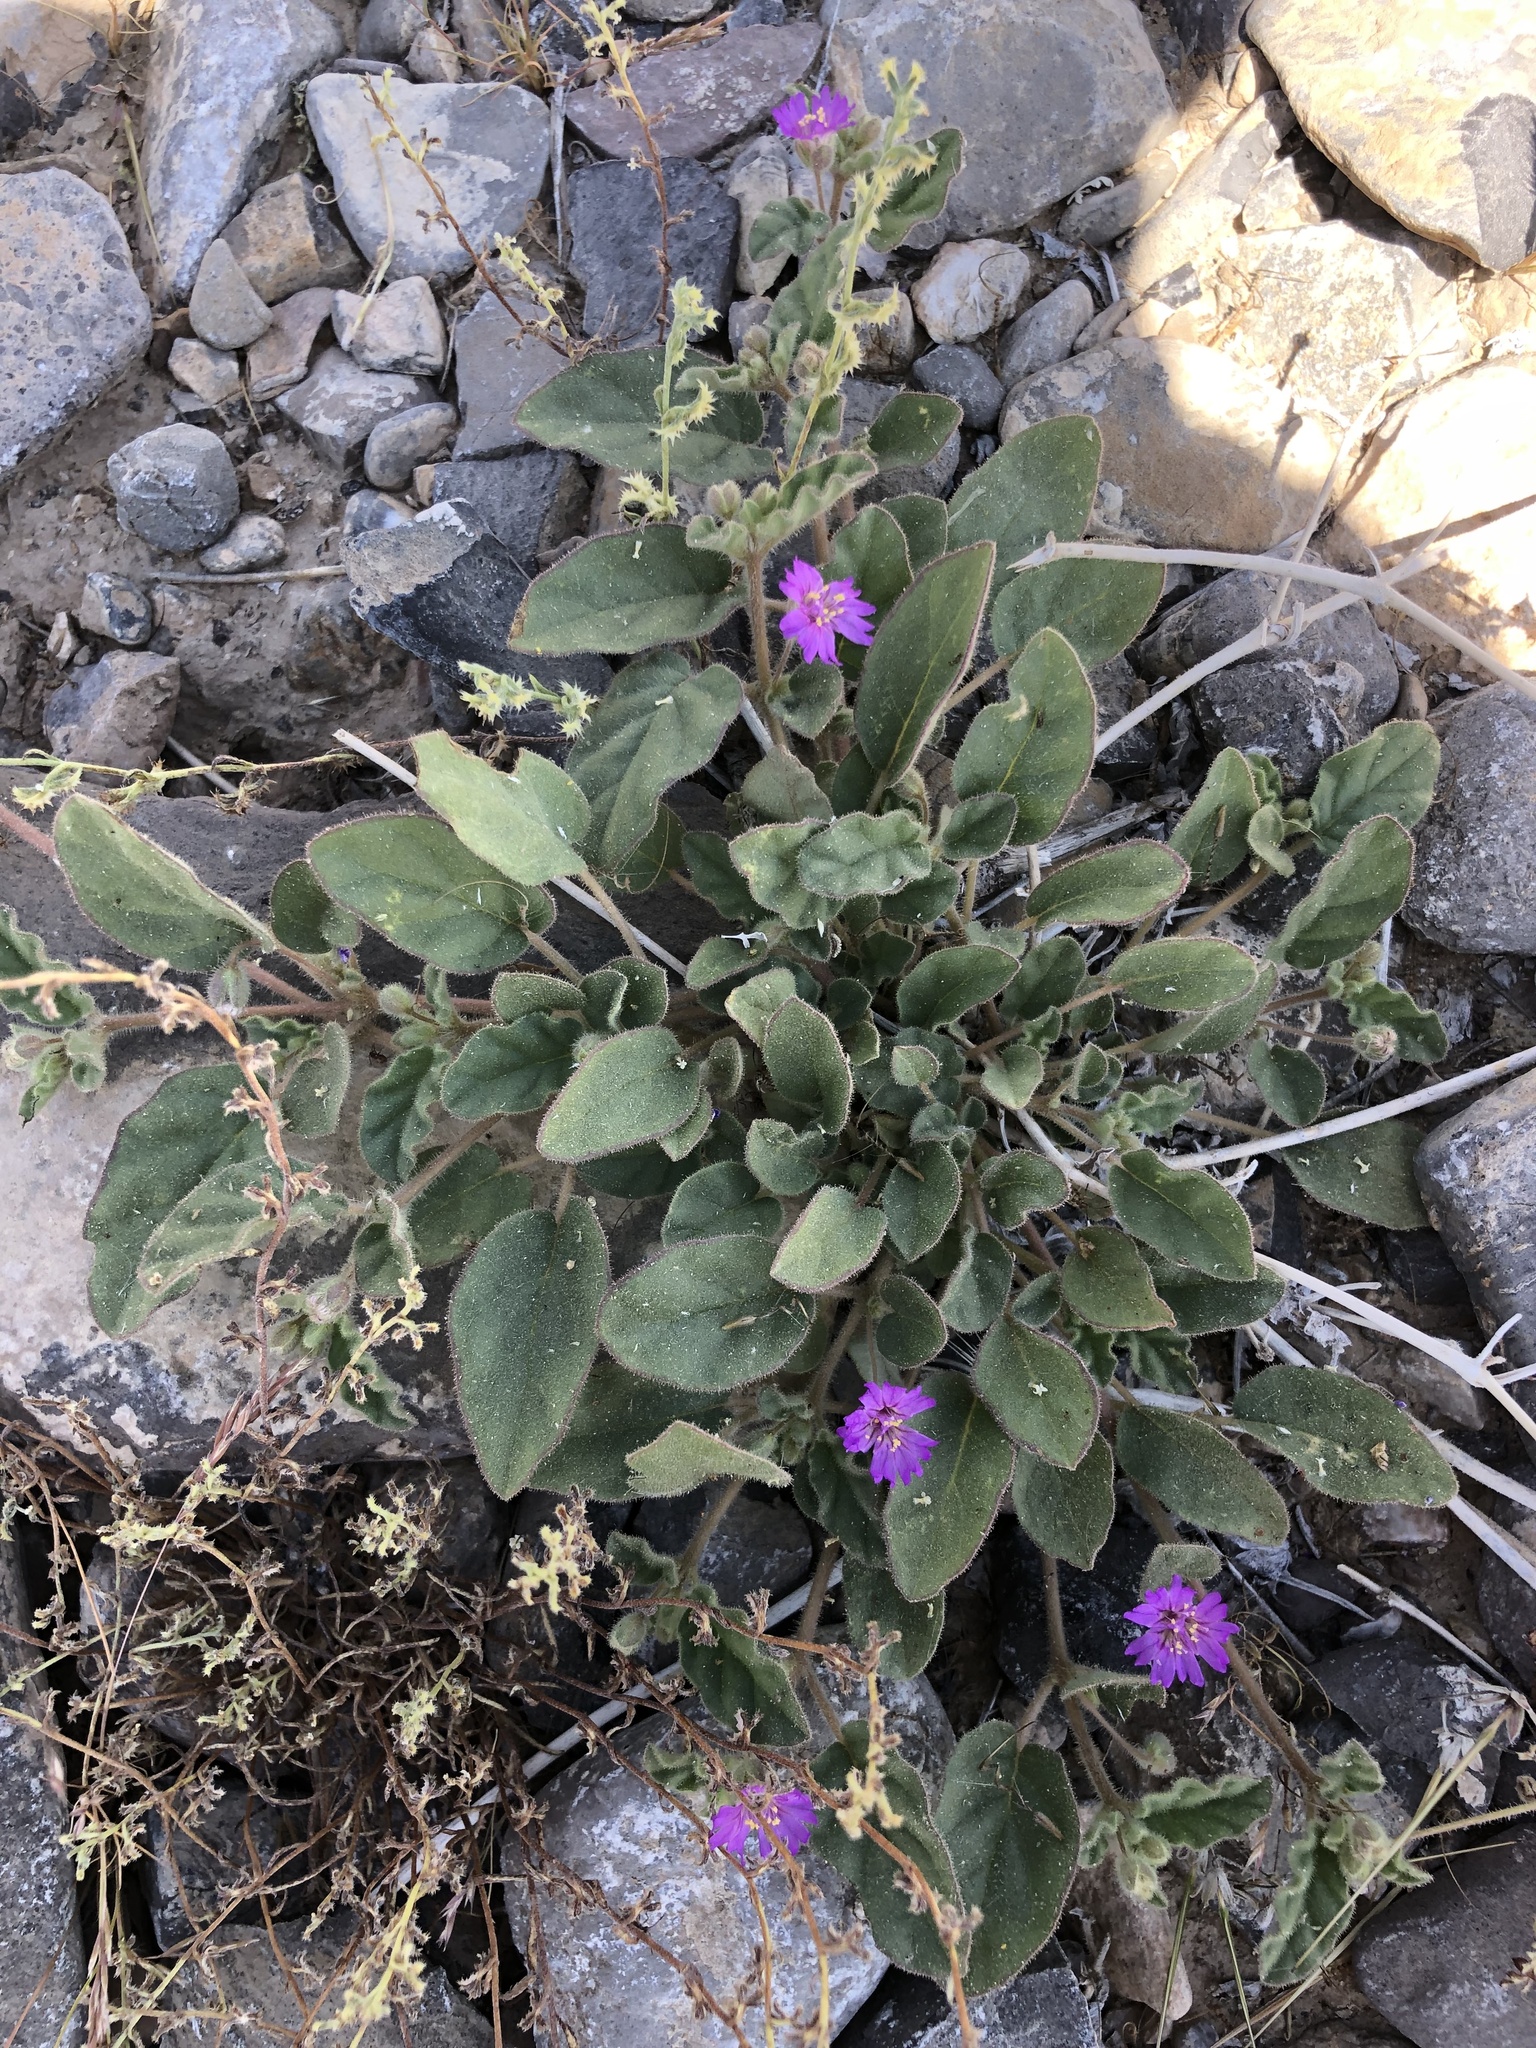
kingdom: Plantae
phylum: Tracheophyta
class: Magnoliopsida
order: Caryophyllales
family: Nyctaginaceae
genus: Allionia
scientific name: Allionia incarnata
